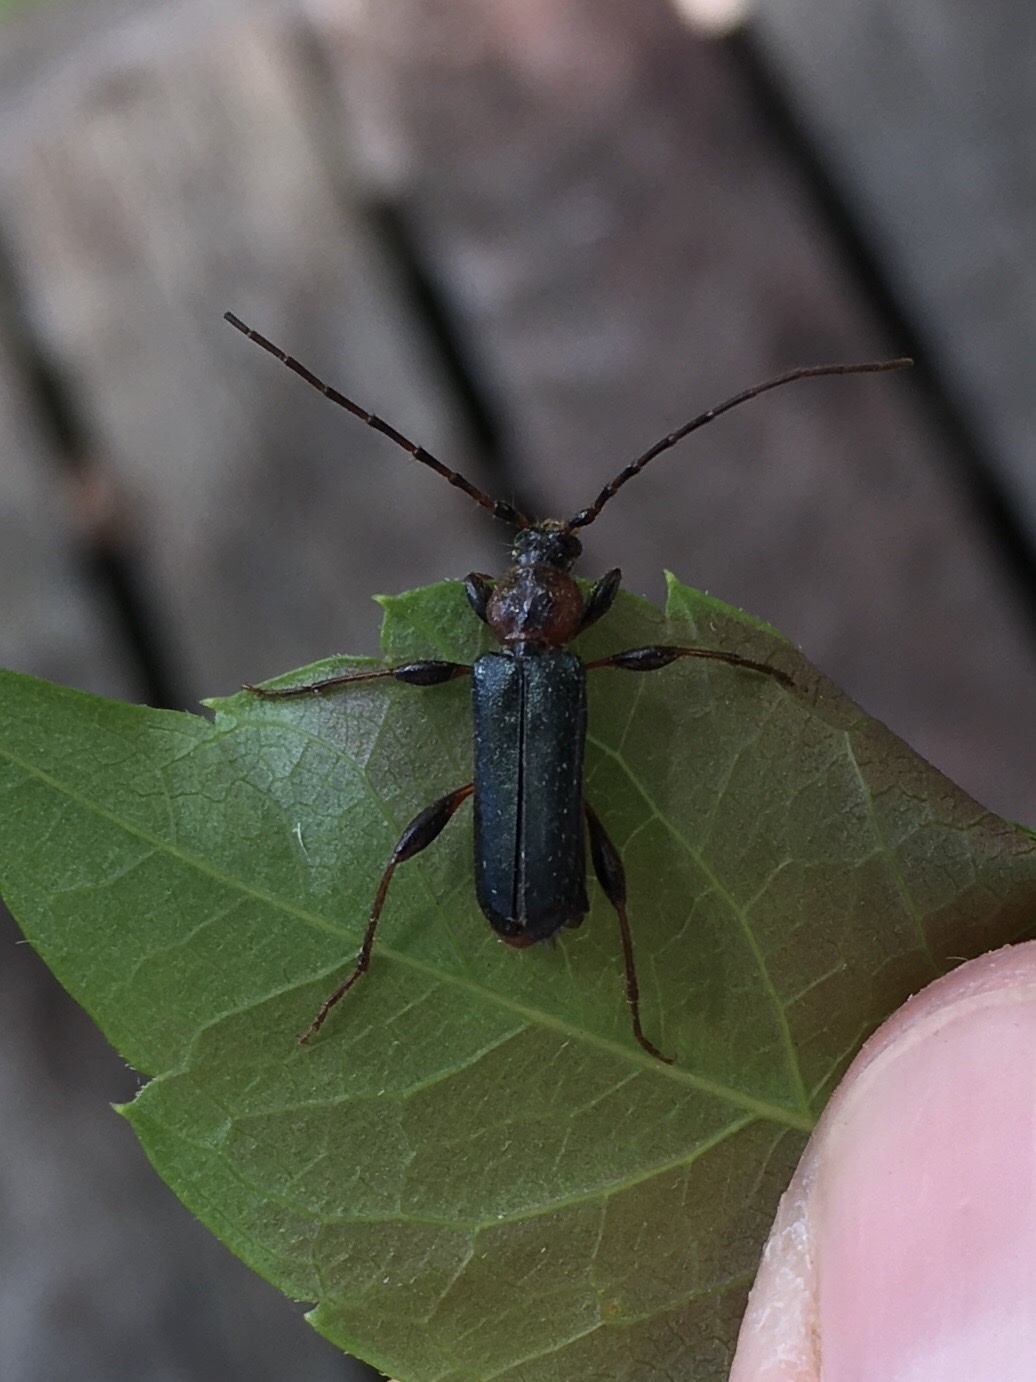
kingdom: Animalia
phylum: Arthropoda
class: Insecta
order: Coleoptera
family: Cerambycidae
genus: Phymatodes
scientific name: Phymatodes testaceus
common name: Long-horned beetle
